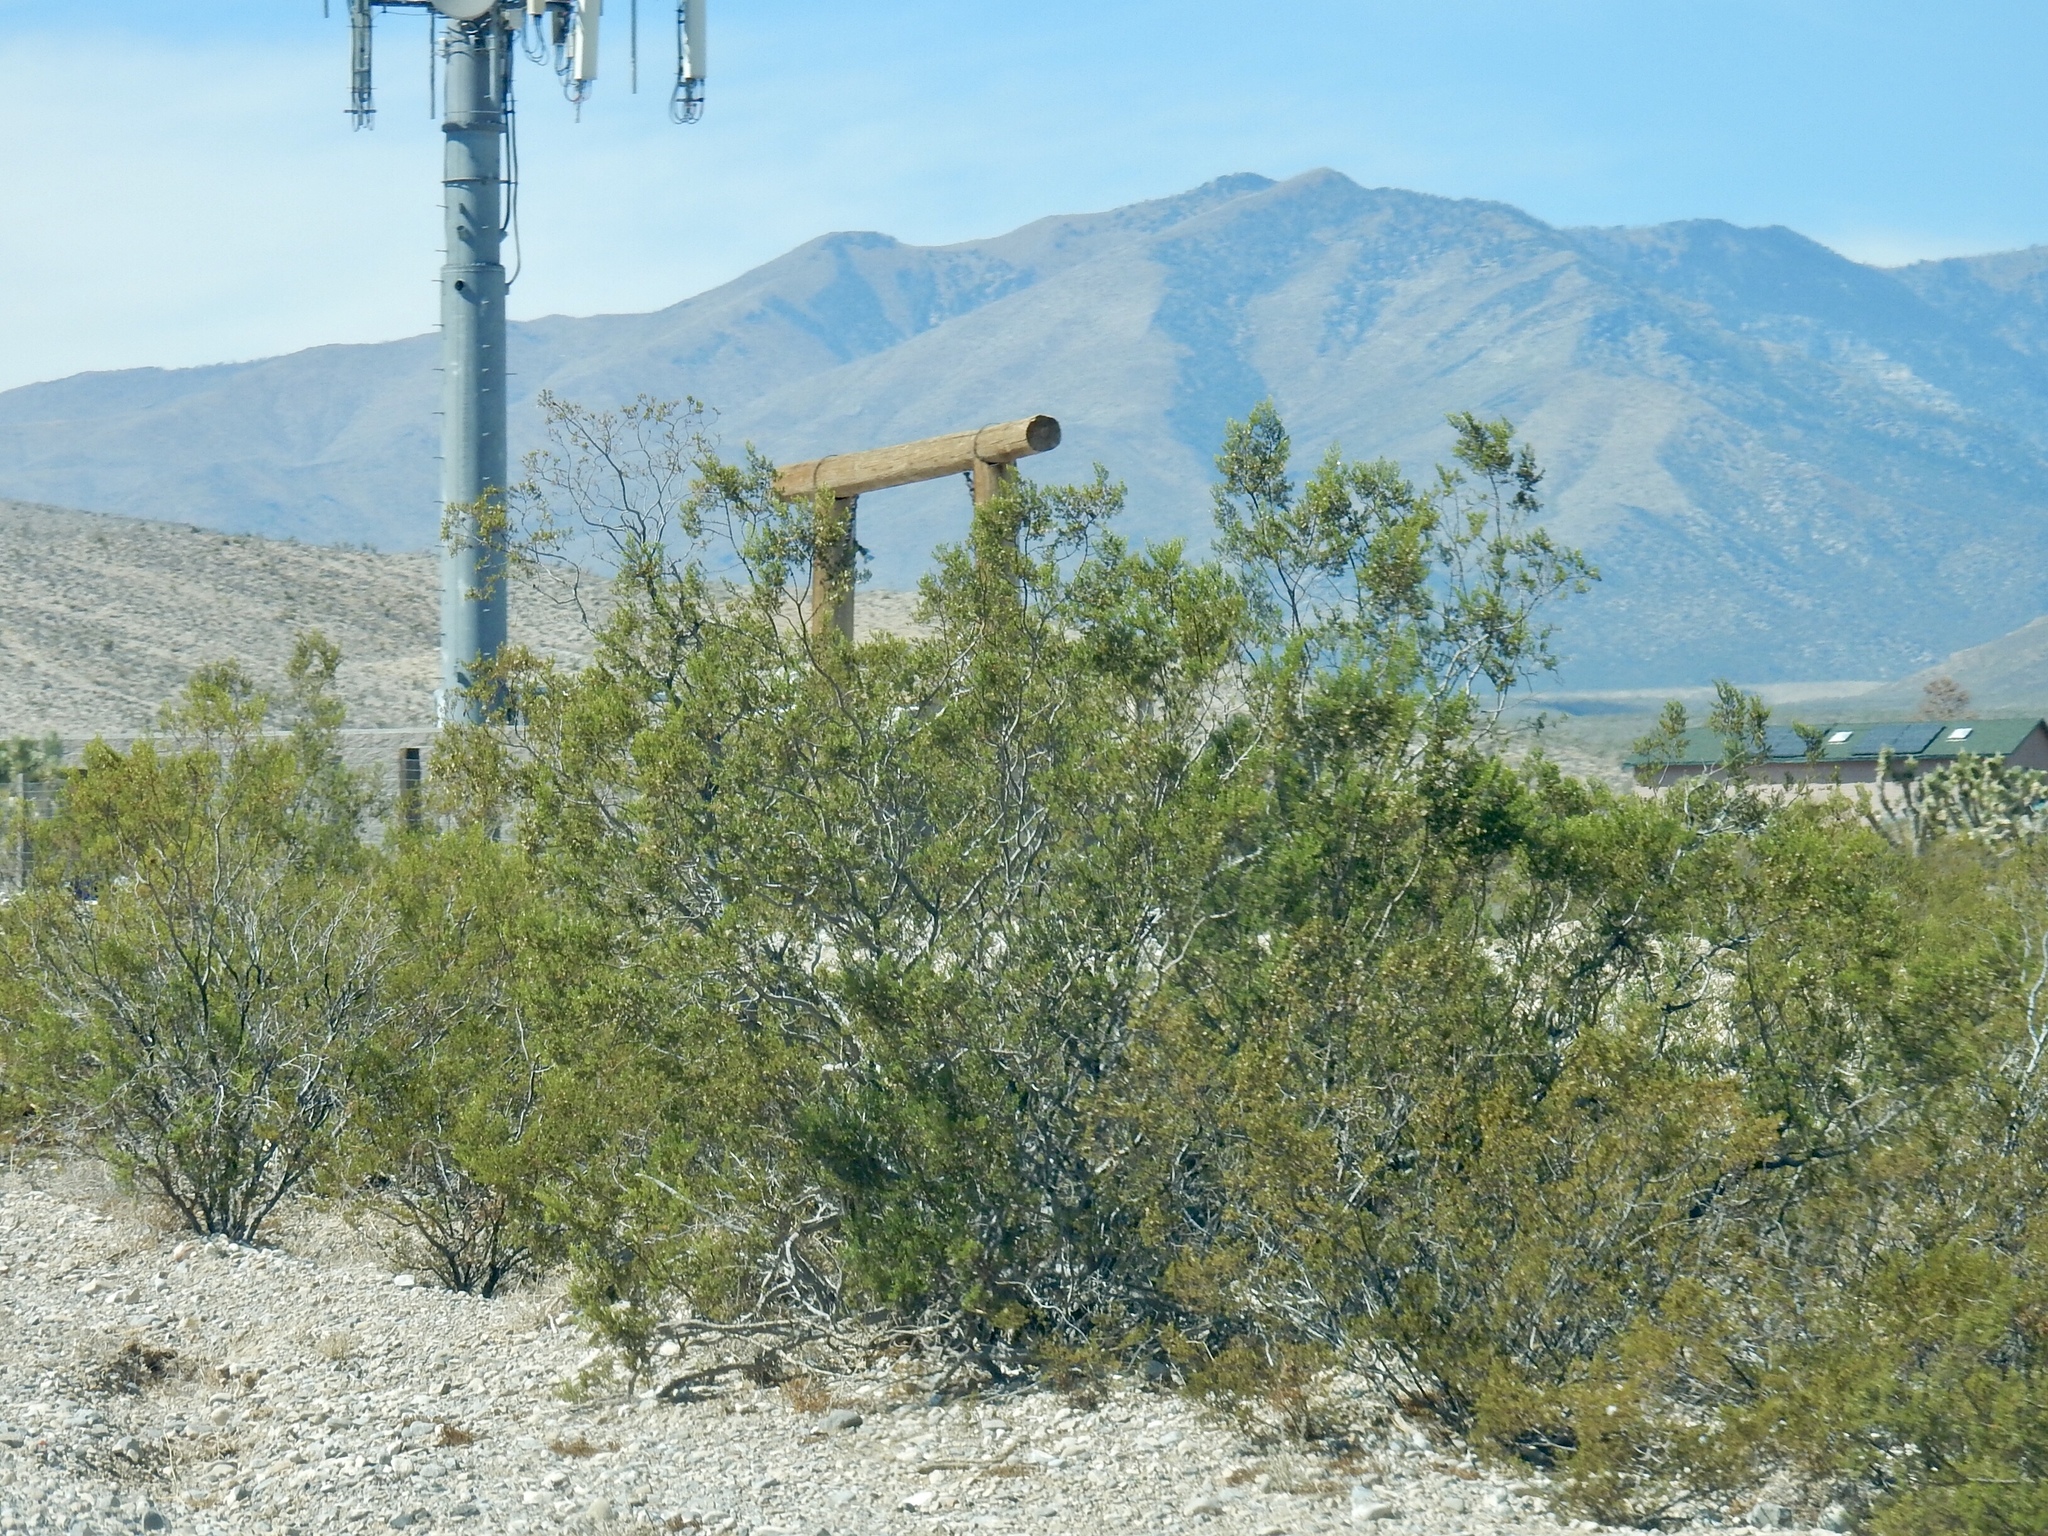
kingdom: Plantae
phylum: Tracheophyta
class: Magnoliopsida
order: Zygophyllales
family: Zygophyllaceae
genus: Larrea
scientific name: Larrea tridentata
